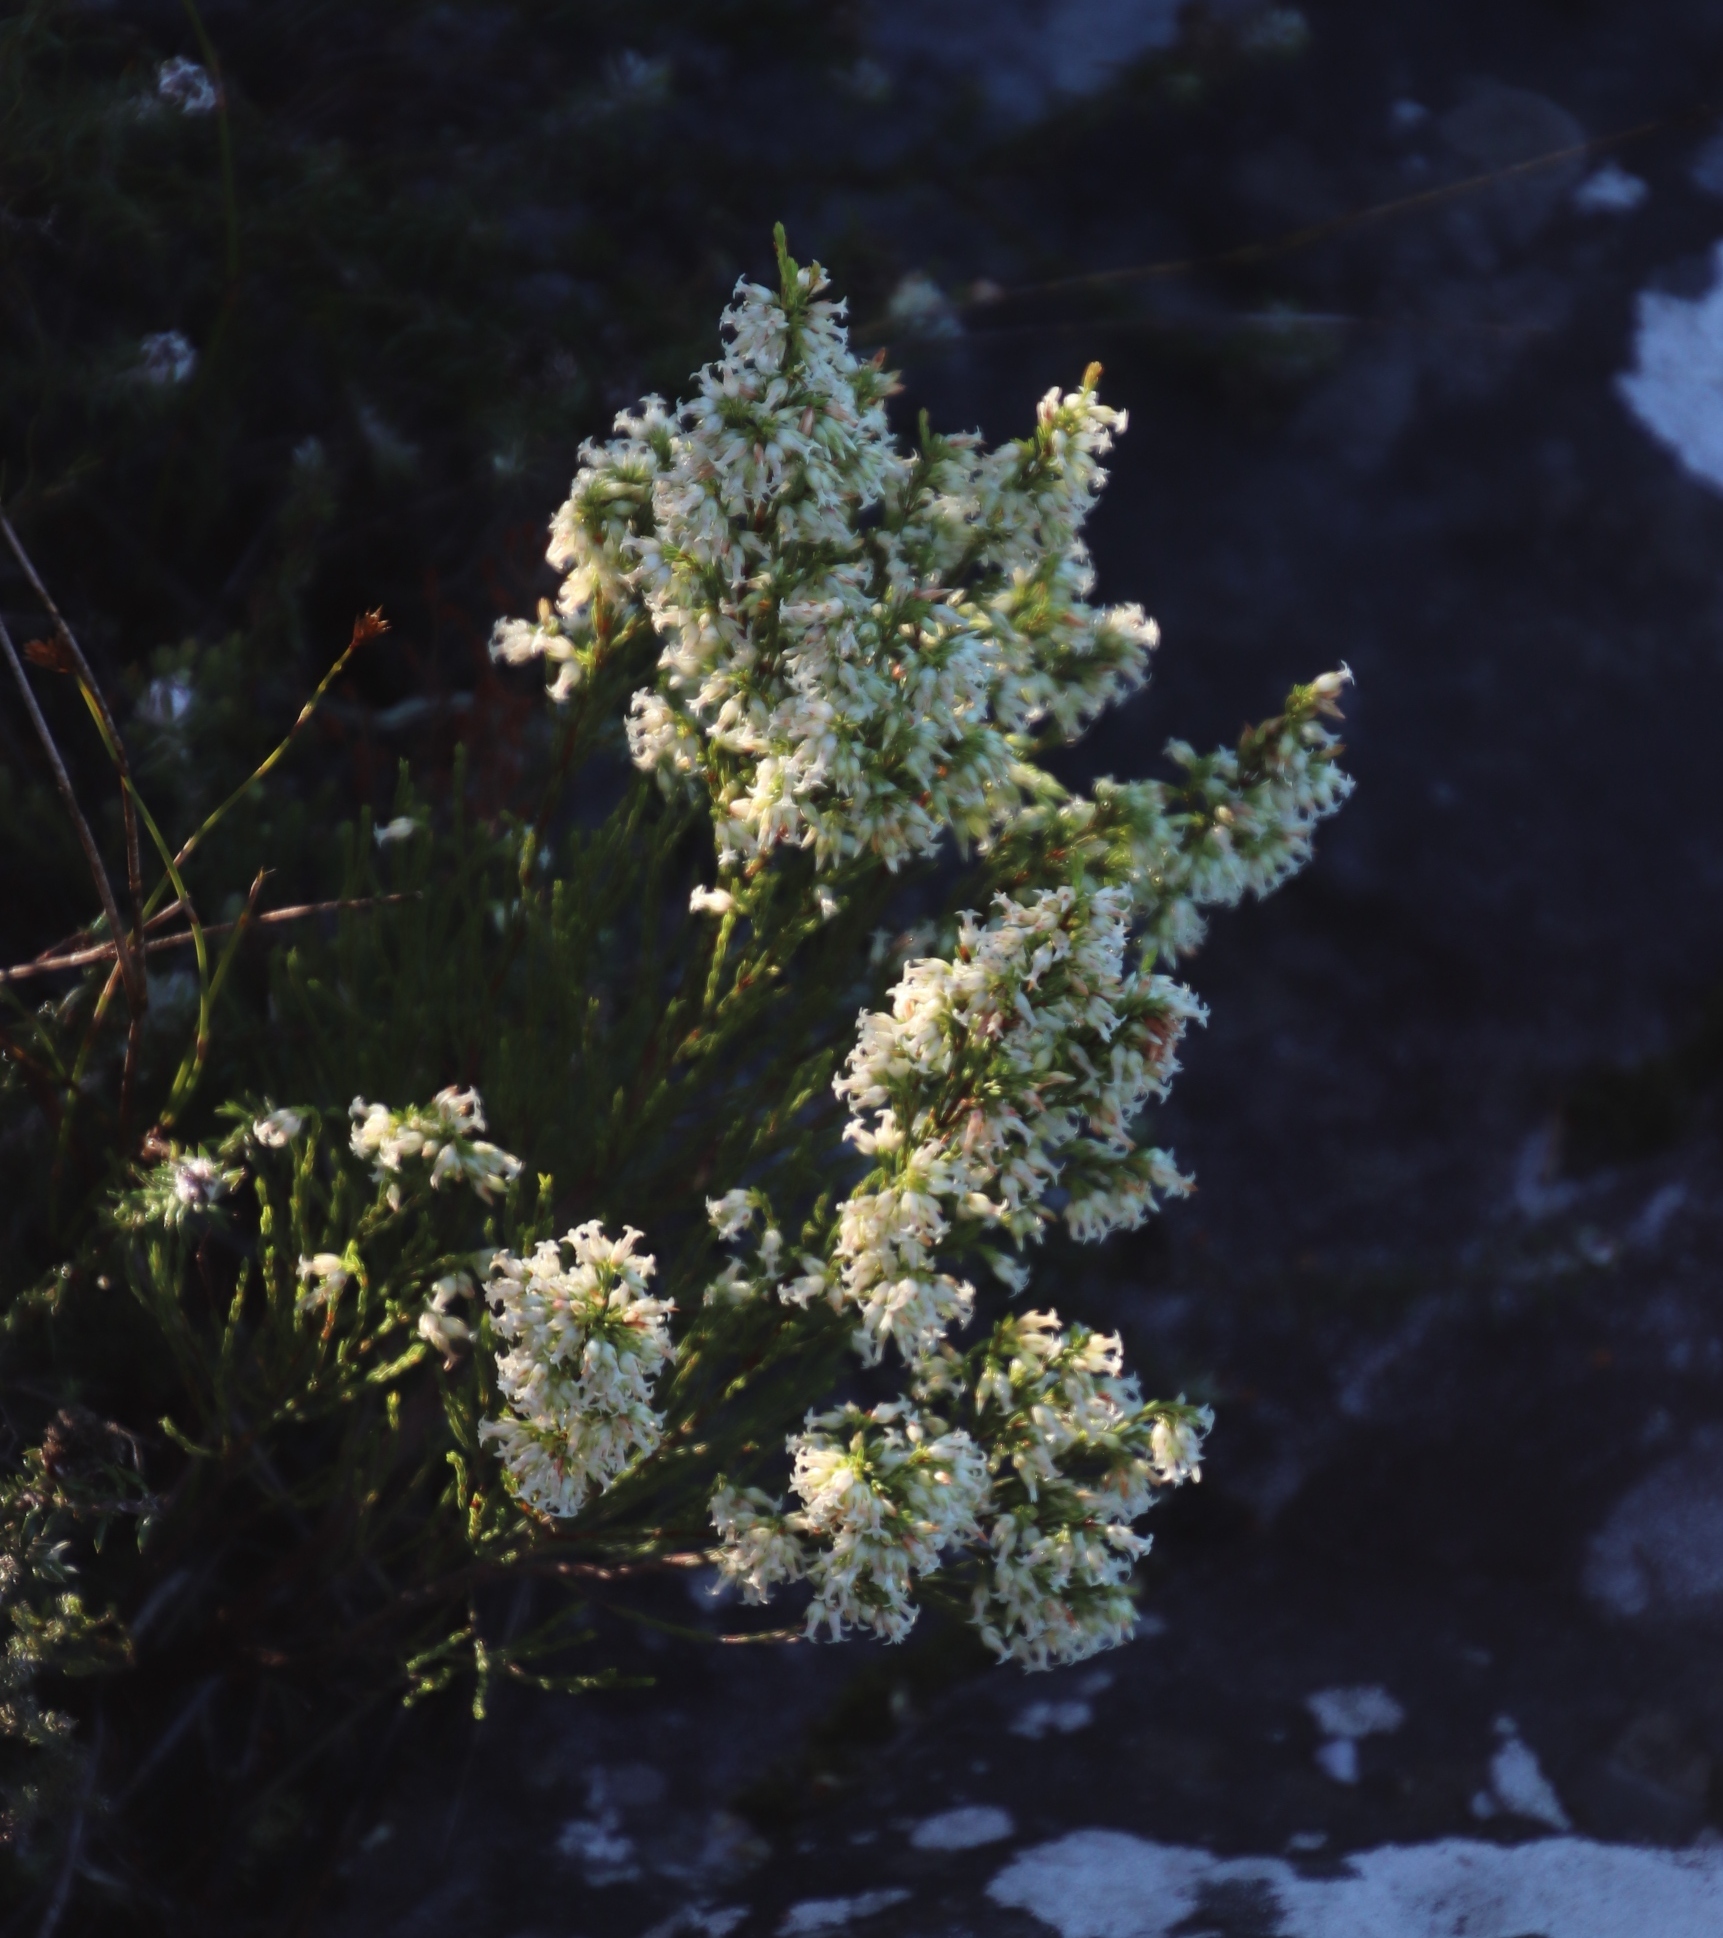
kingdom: Plantae
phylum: Tracheophyta
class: Magnoliopsida
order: Ericales
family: Ericaceae
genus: Erica
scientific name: Erica lutea
